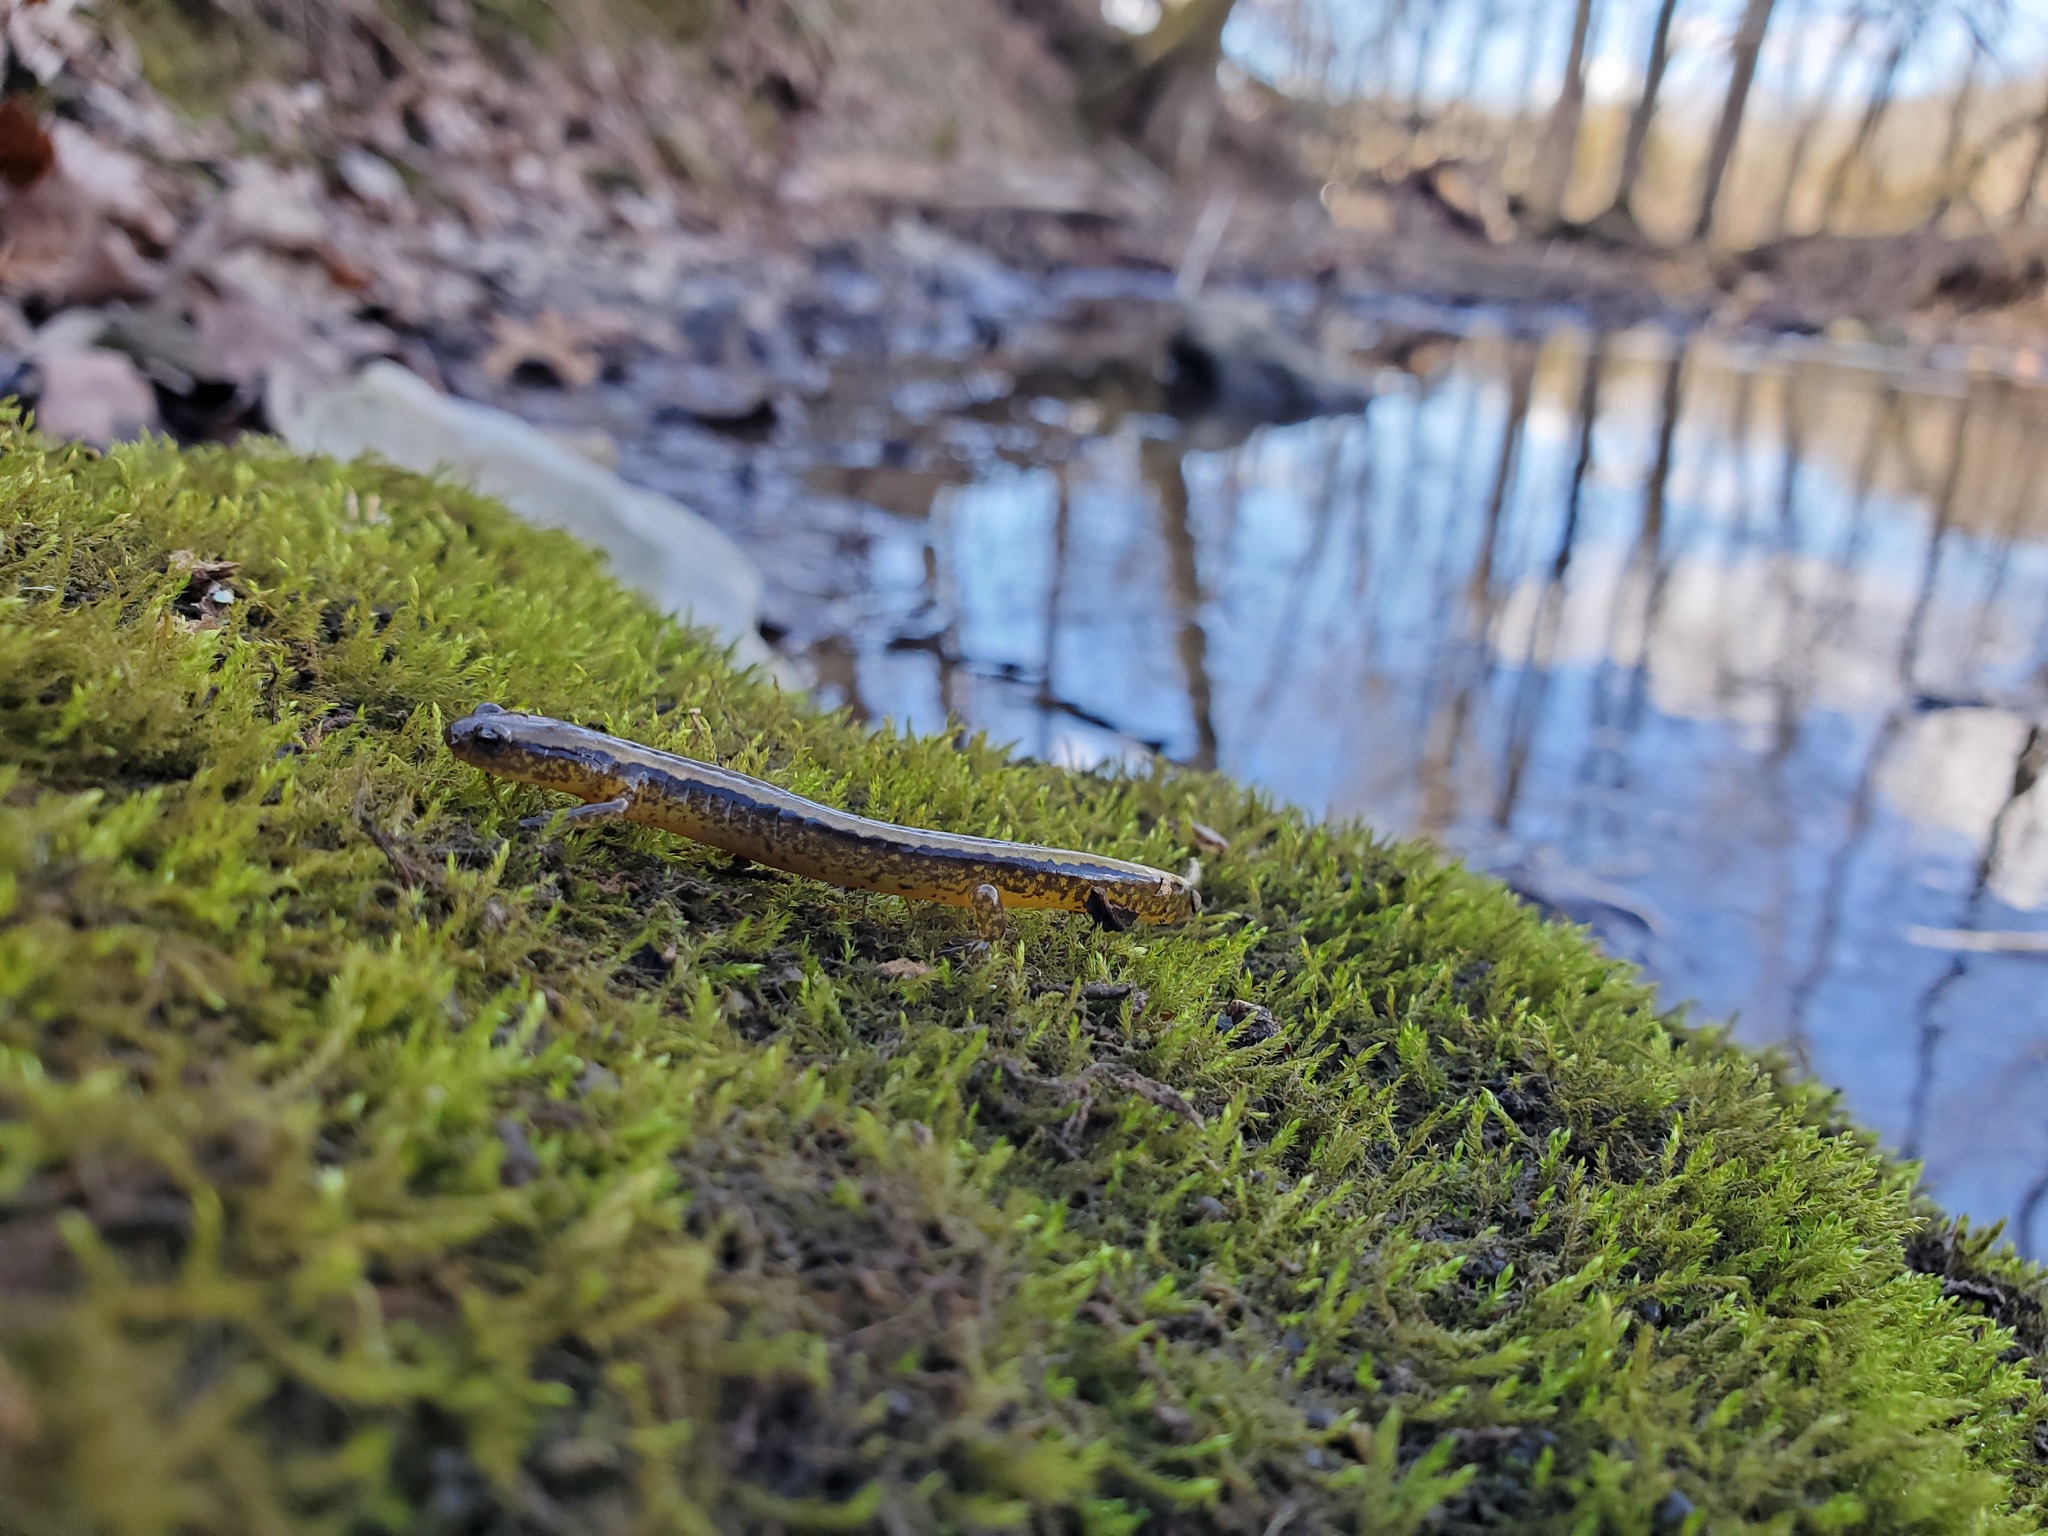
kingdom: Animalia
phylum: Chordata
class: Amphibia
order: Caudata
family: Plethodontidae
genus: Eurycea
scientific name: Eurycea cirrigera
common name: Southern two-lined salamander
